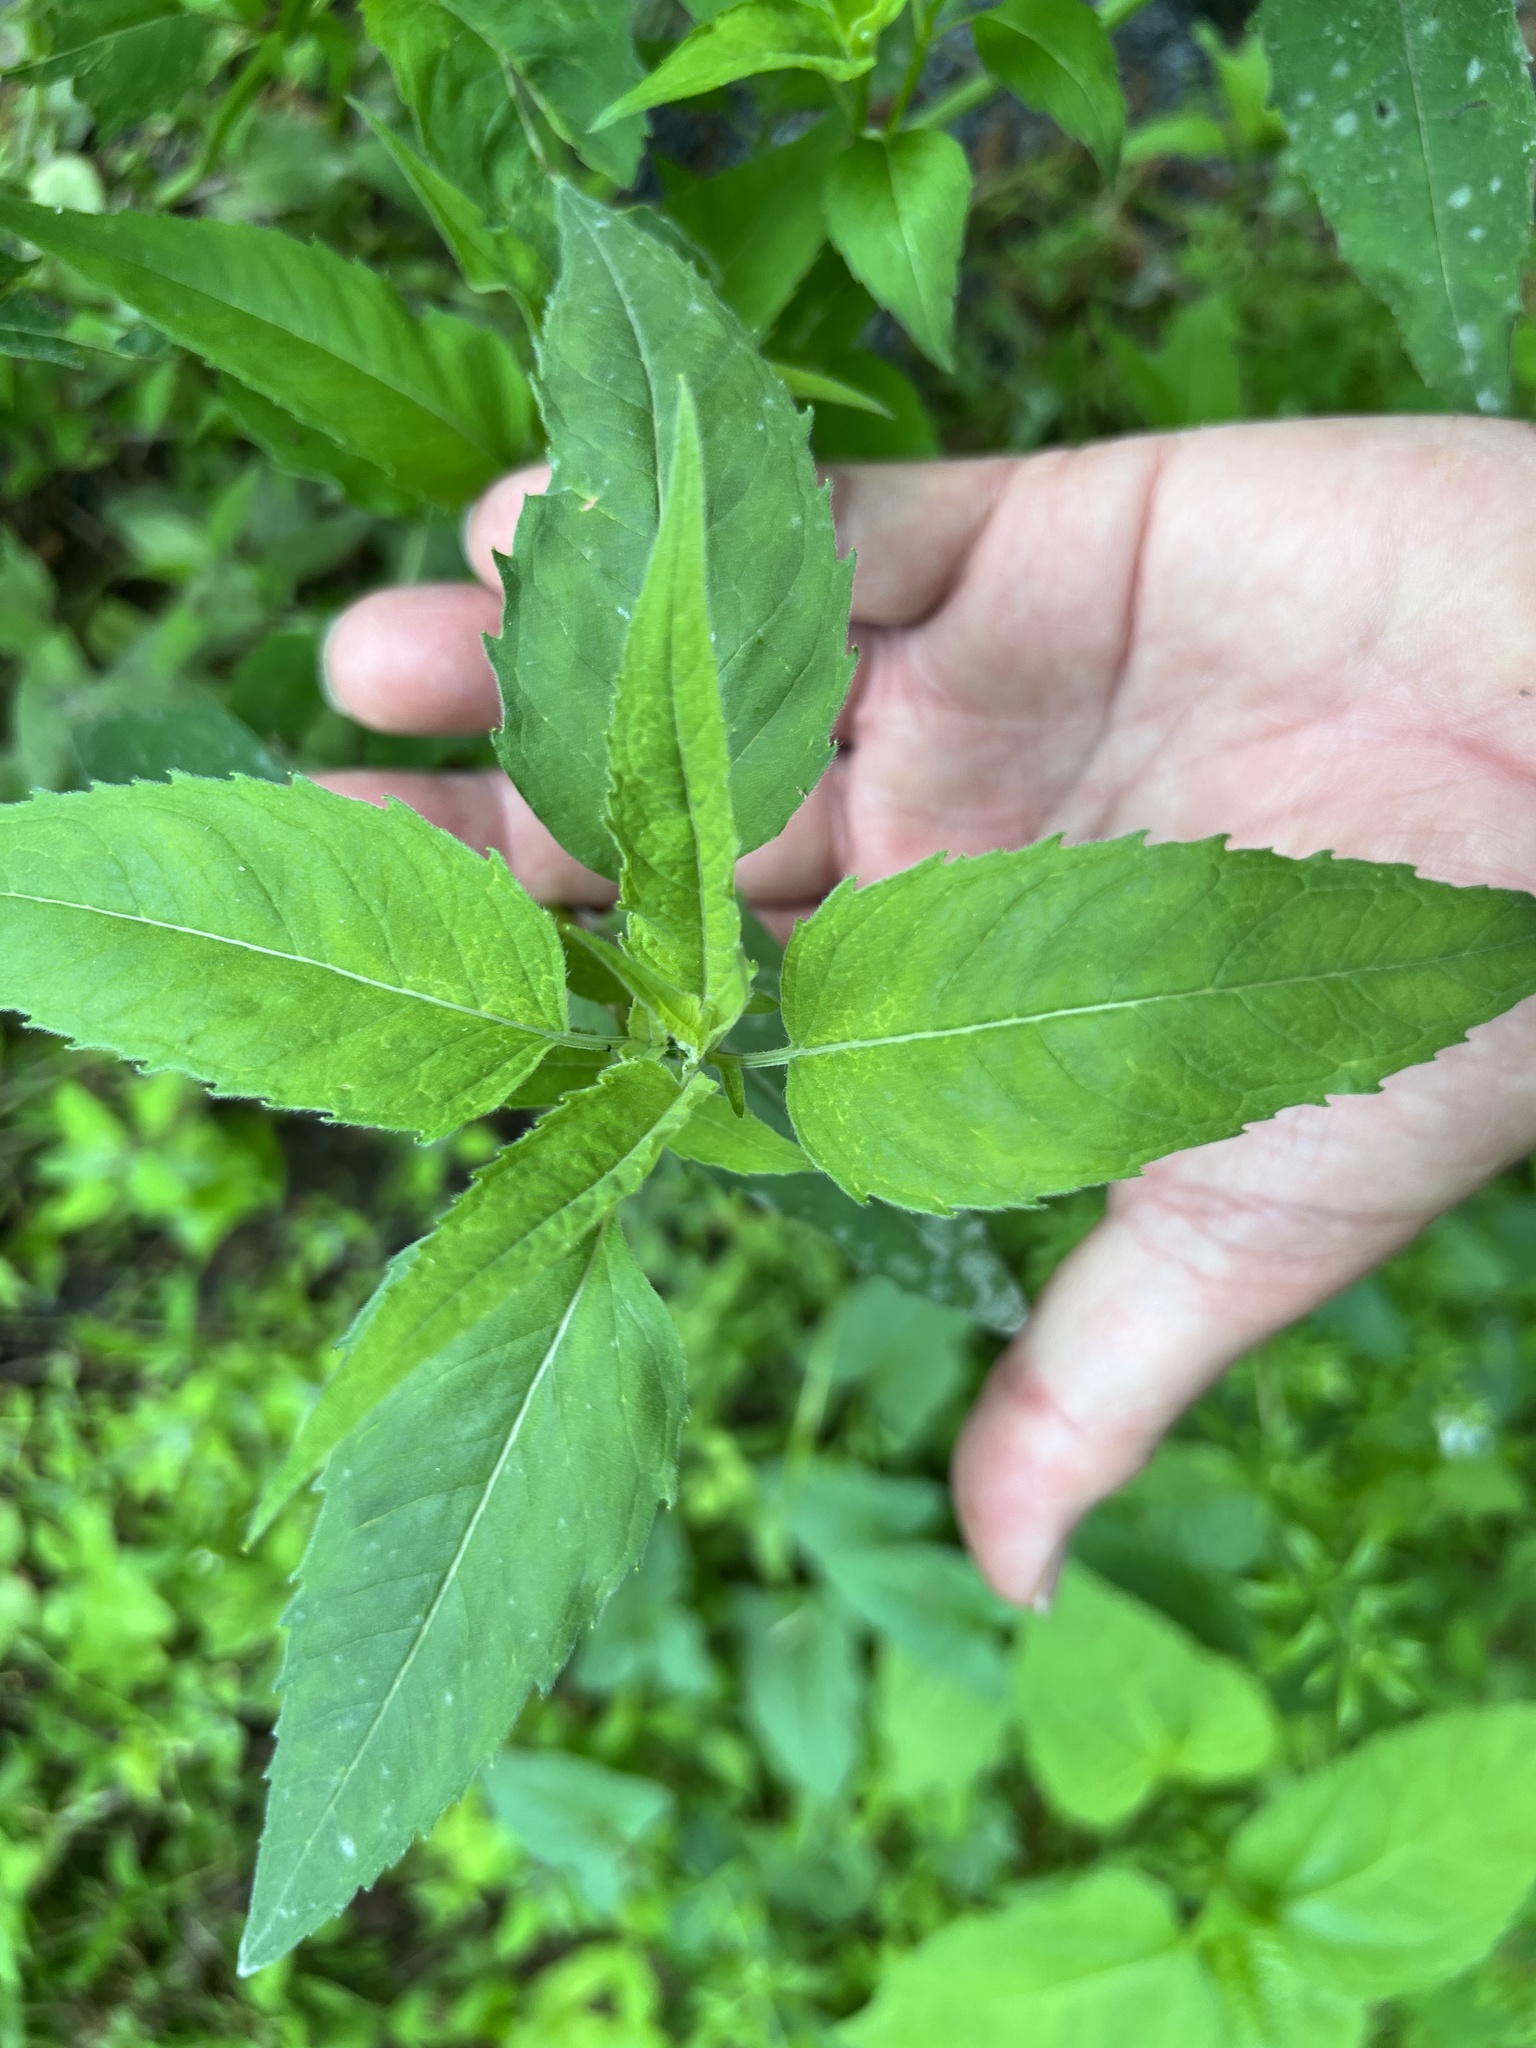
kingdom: Fungi
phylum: Ascomycota
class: Leotiomycetes
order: Helotiales
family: Erysiphaceae
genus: Golovinomyces
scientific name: Golovinomyces monardae
